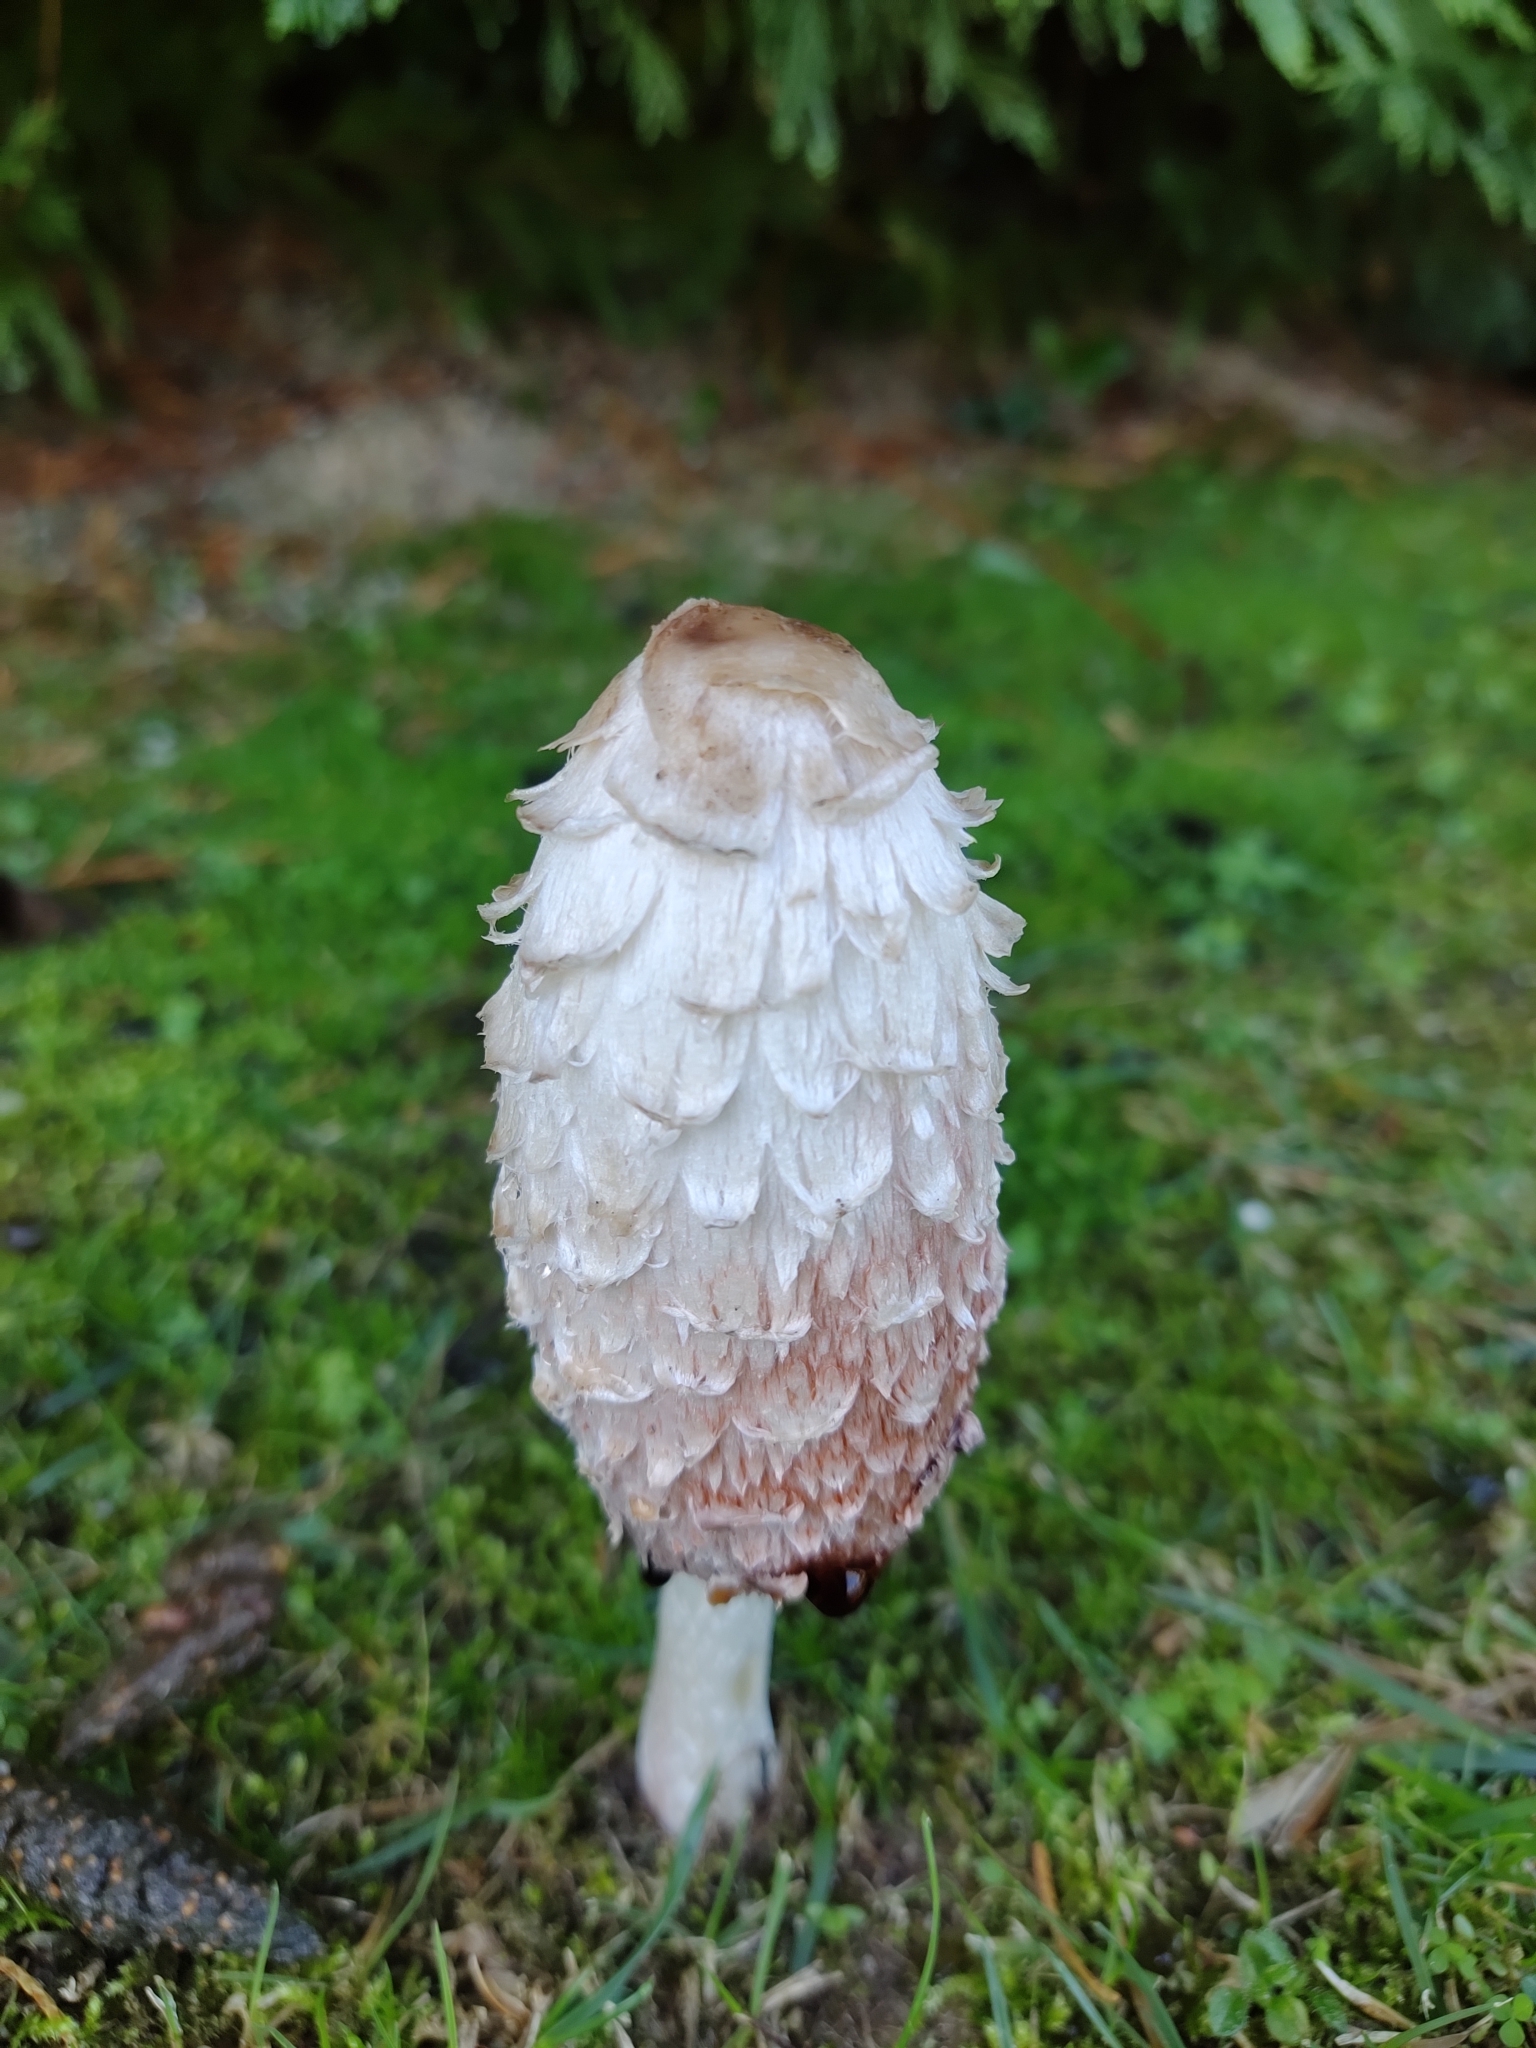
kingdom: Fungi
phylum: Basidiomycota
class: Agaricomycetes
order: Agaricales
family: Agaricaceae
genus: Coprinus
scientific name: Coprinus comatus
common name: Lawyer's wig
